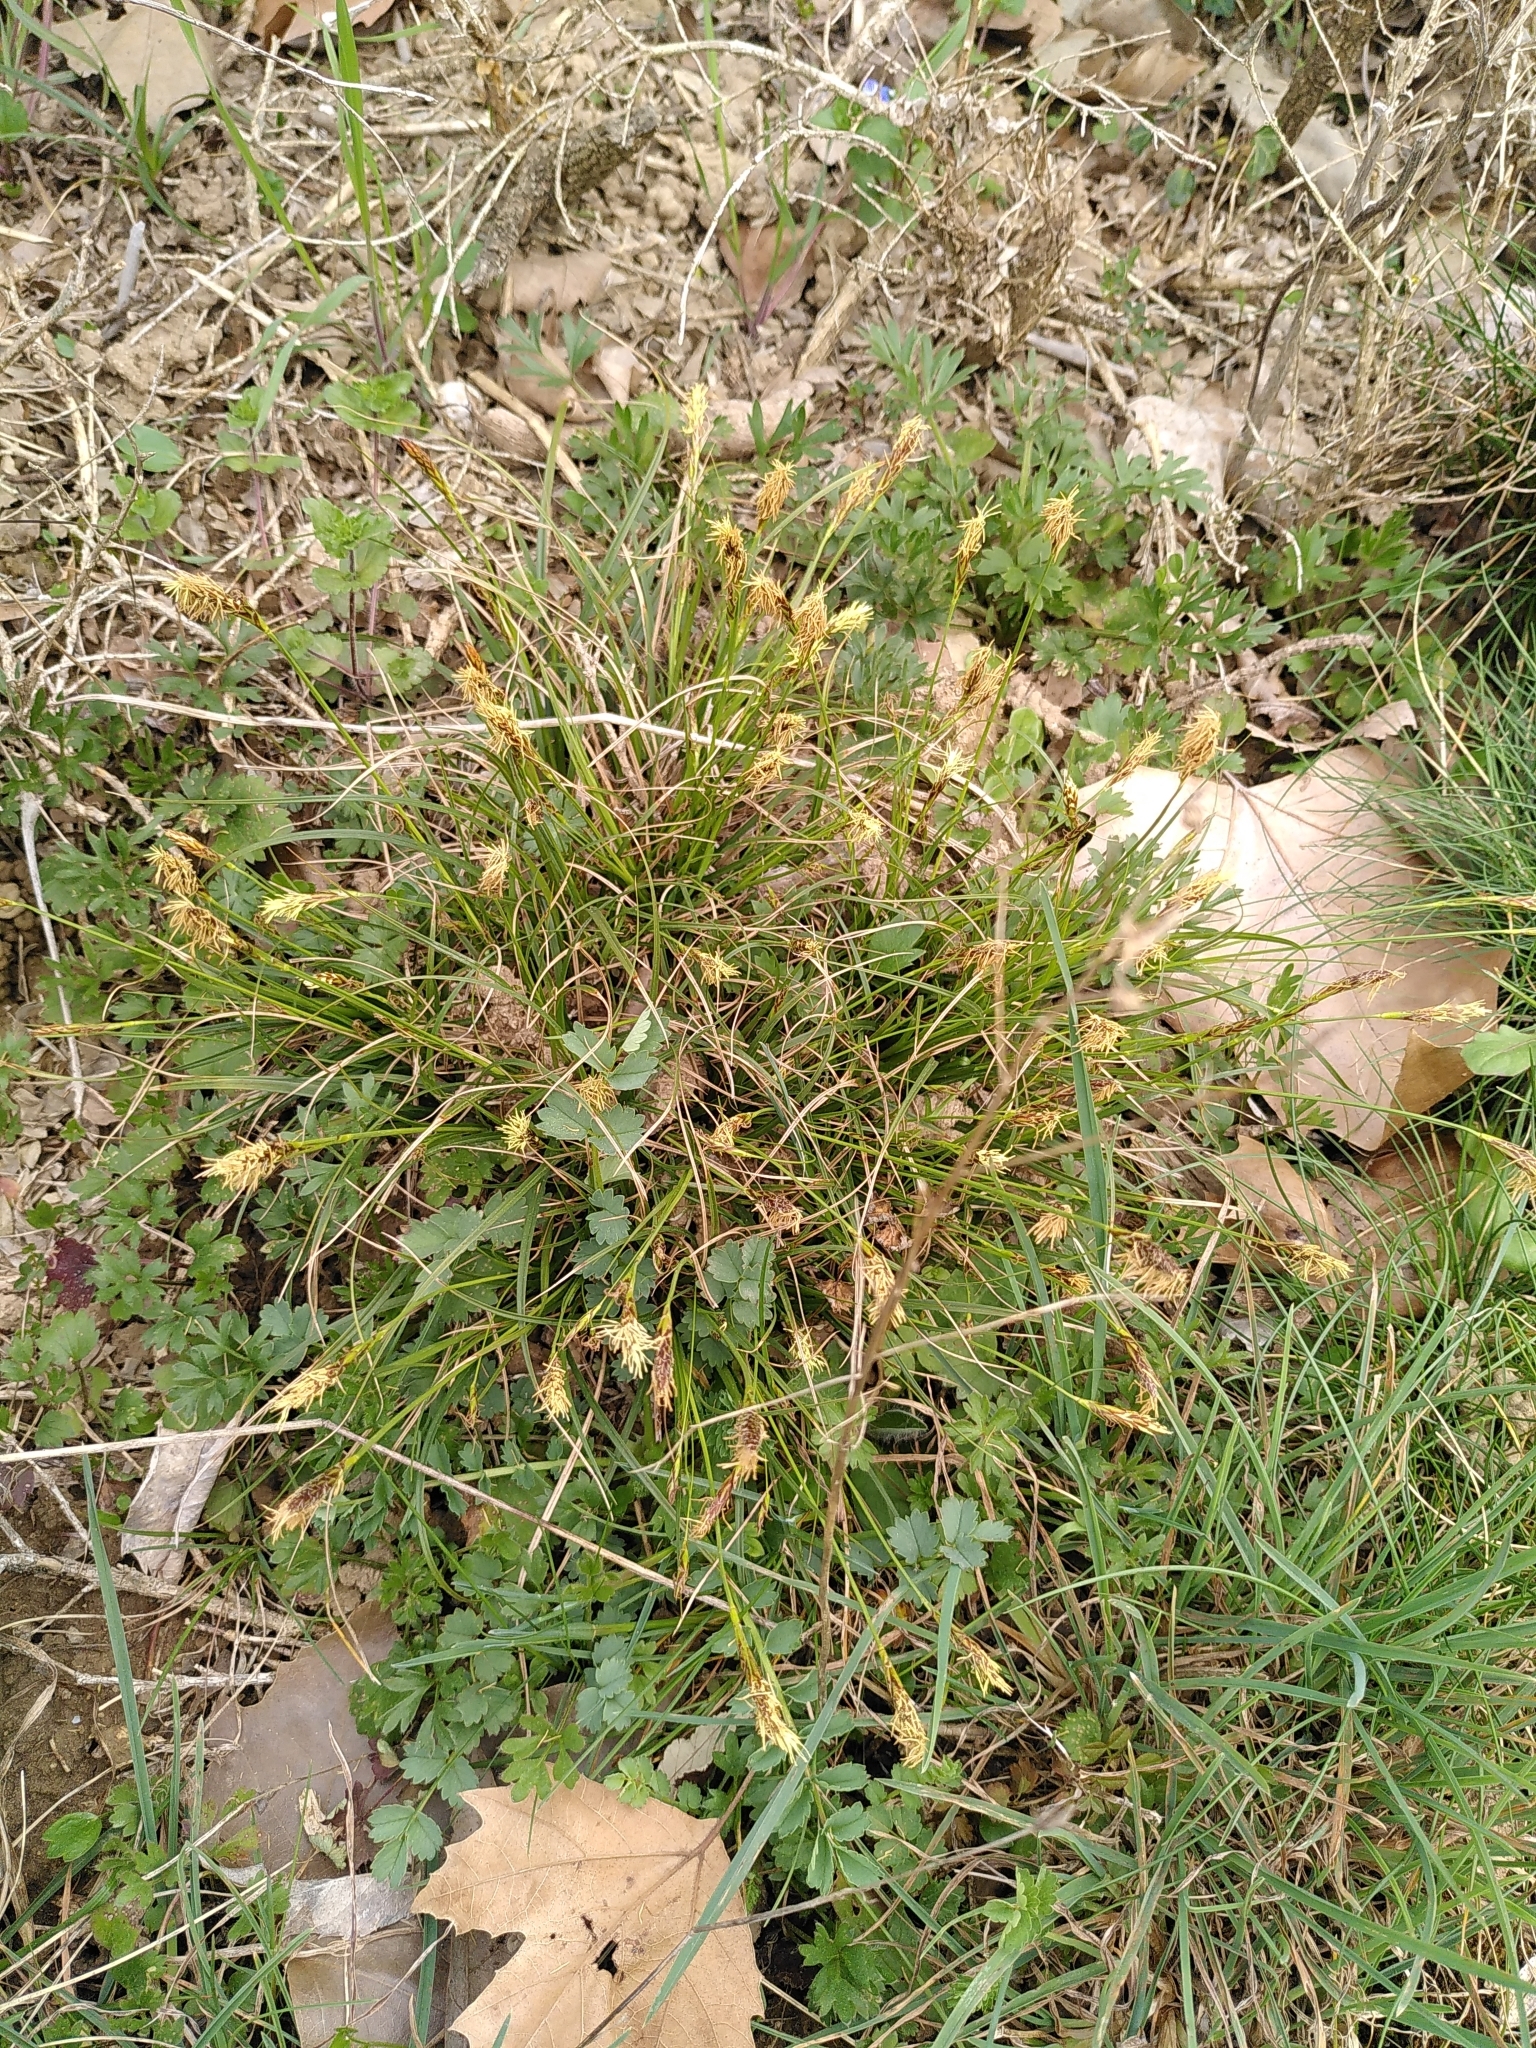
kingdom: Plantae
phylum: Tracheophyta
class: Liliopsida
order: Poales
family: Cyperaceae
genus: Carex
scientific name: Carex halleriana
